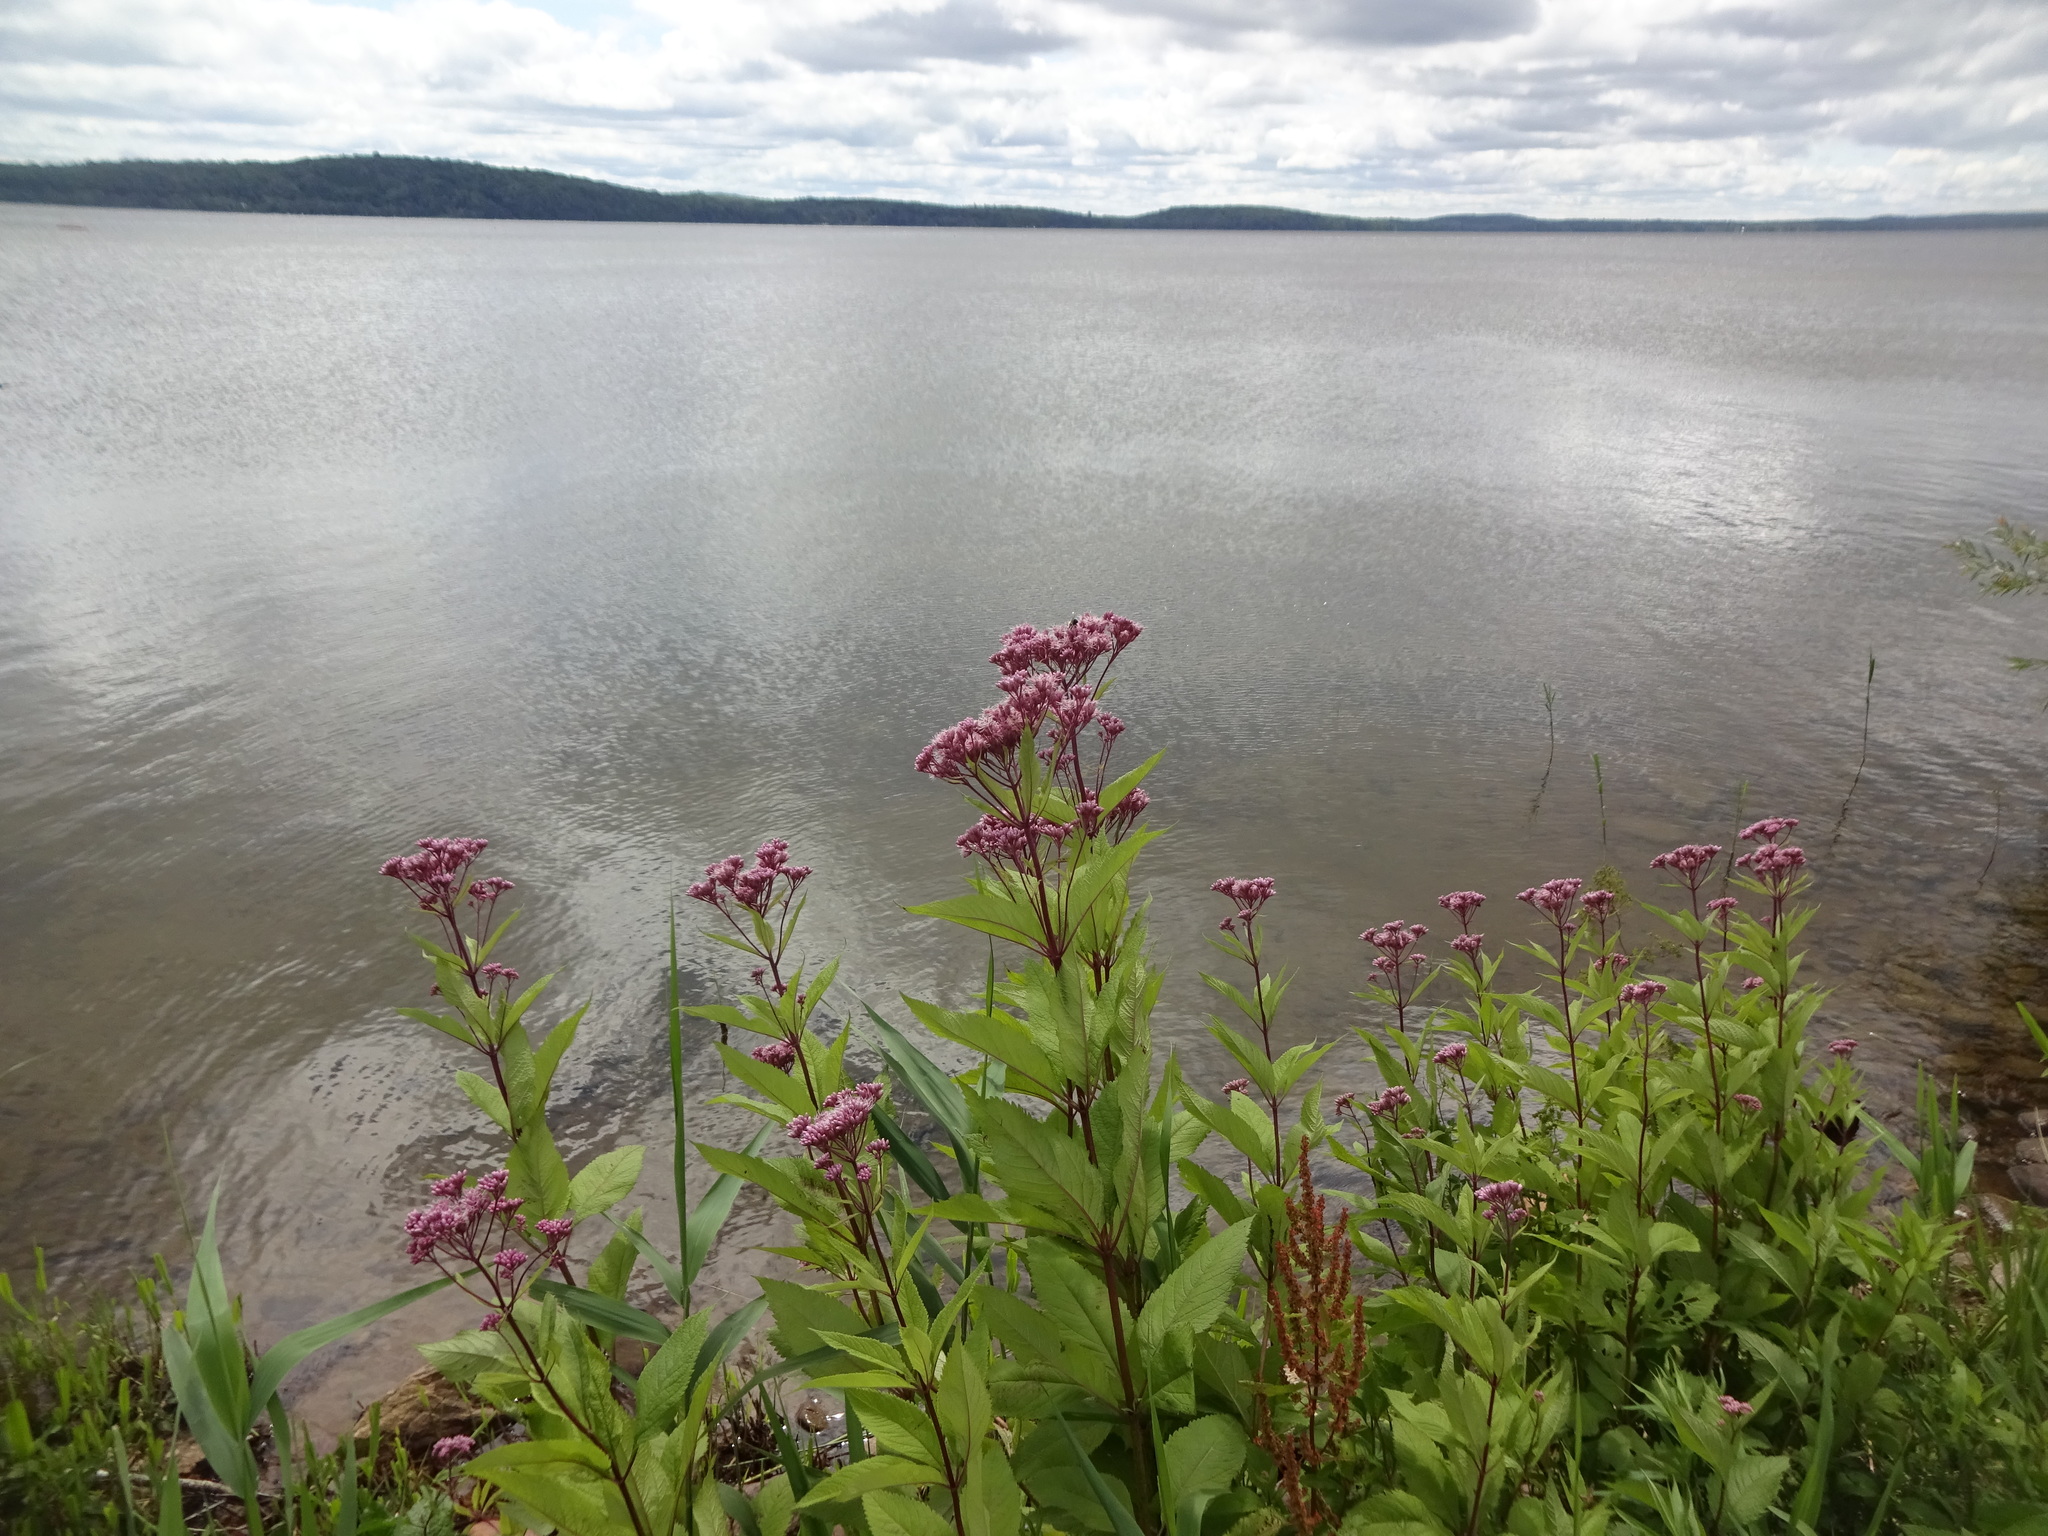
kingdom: Plantae
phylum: Tracheophyta
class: Magnoliopsida
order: Asterales
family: Asteraceae
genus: Eutrochium
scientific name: Eutrochium maculatum
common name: Spotted joe pye weed
